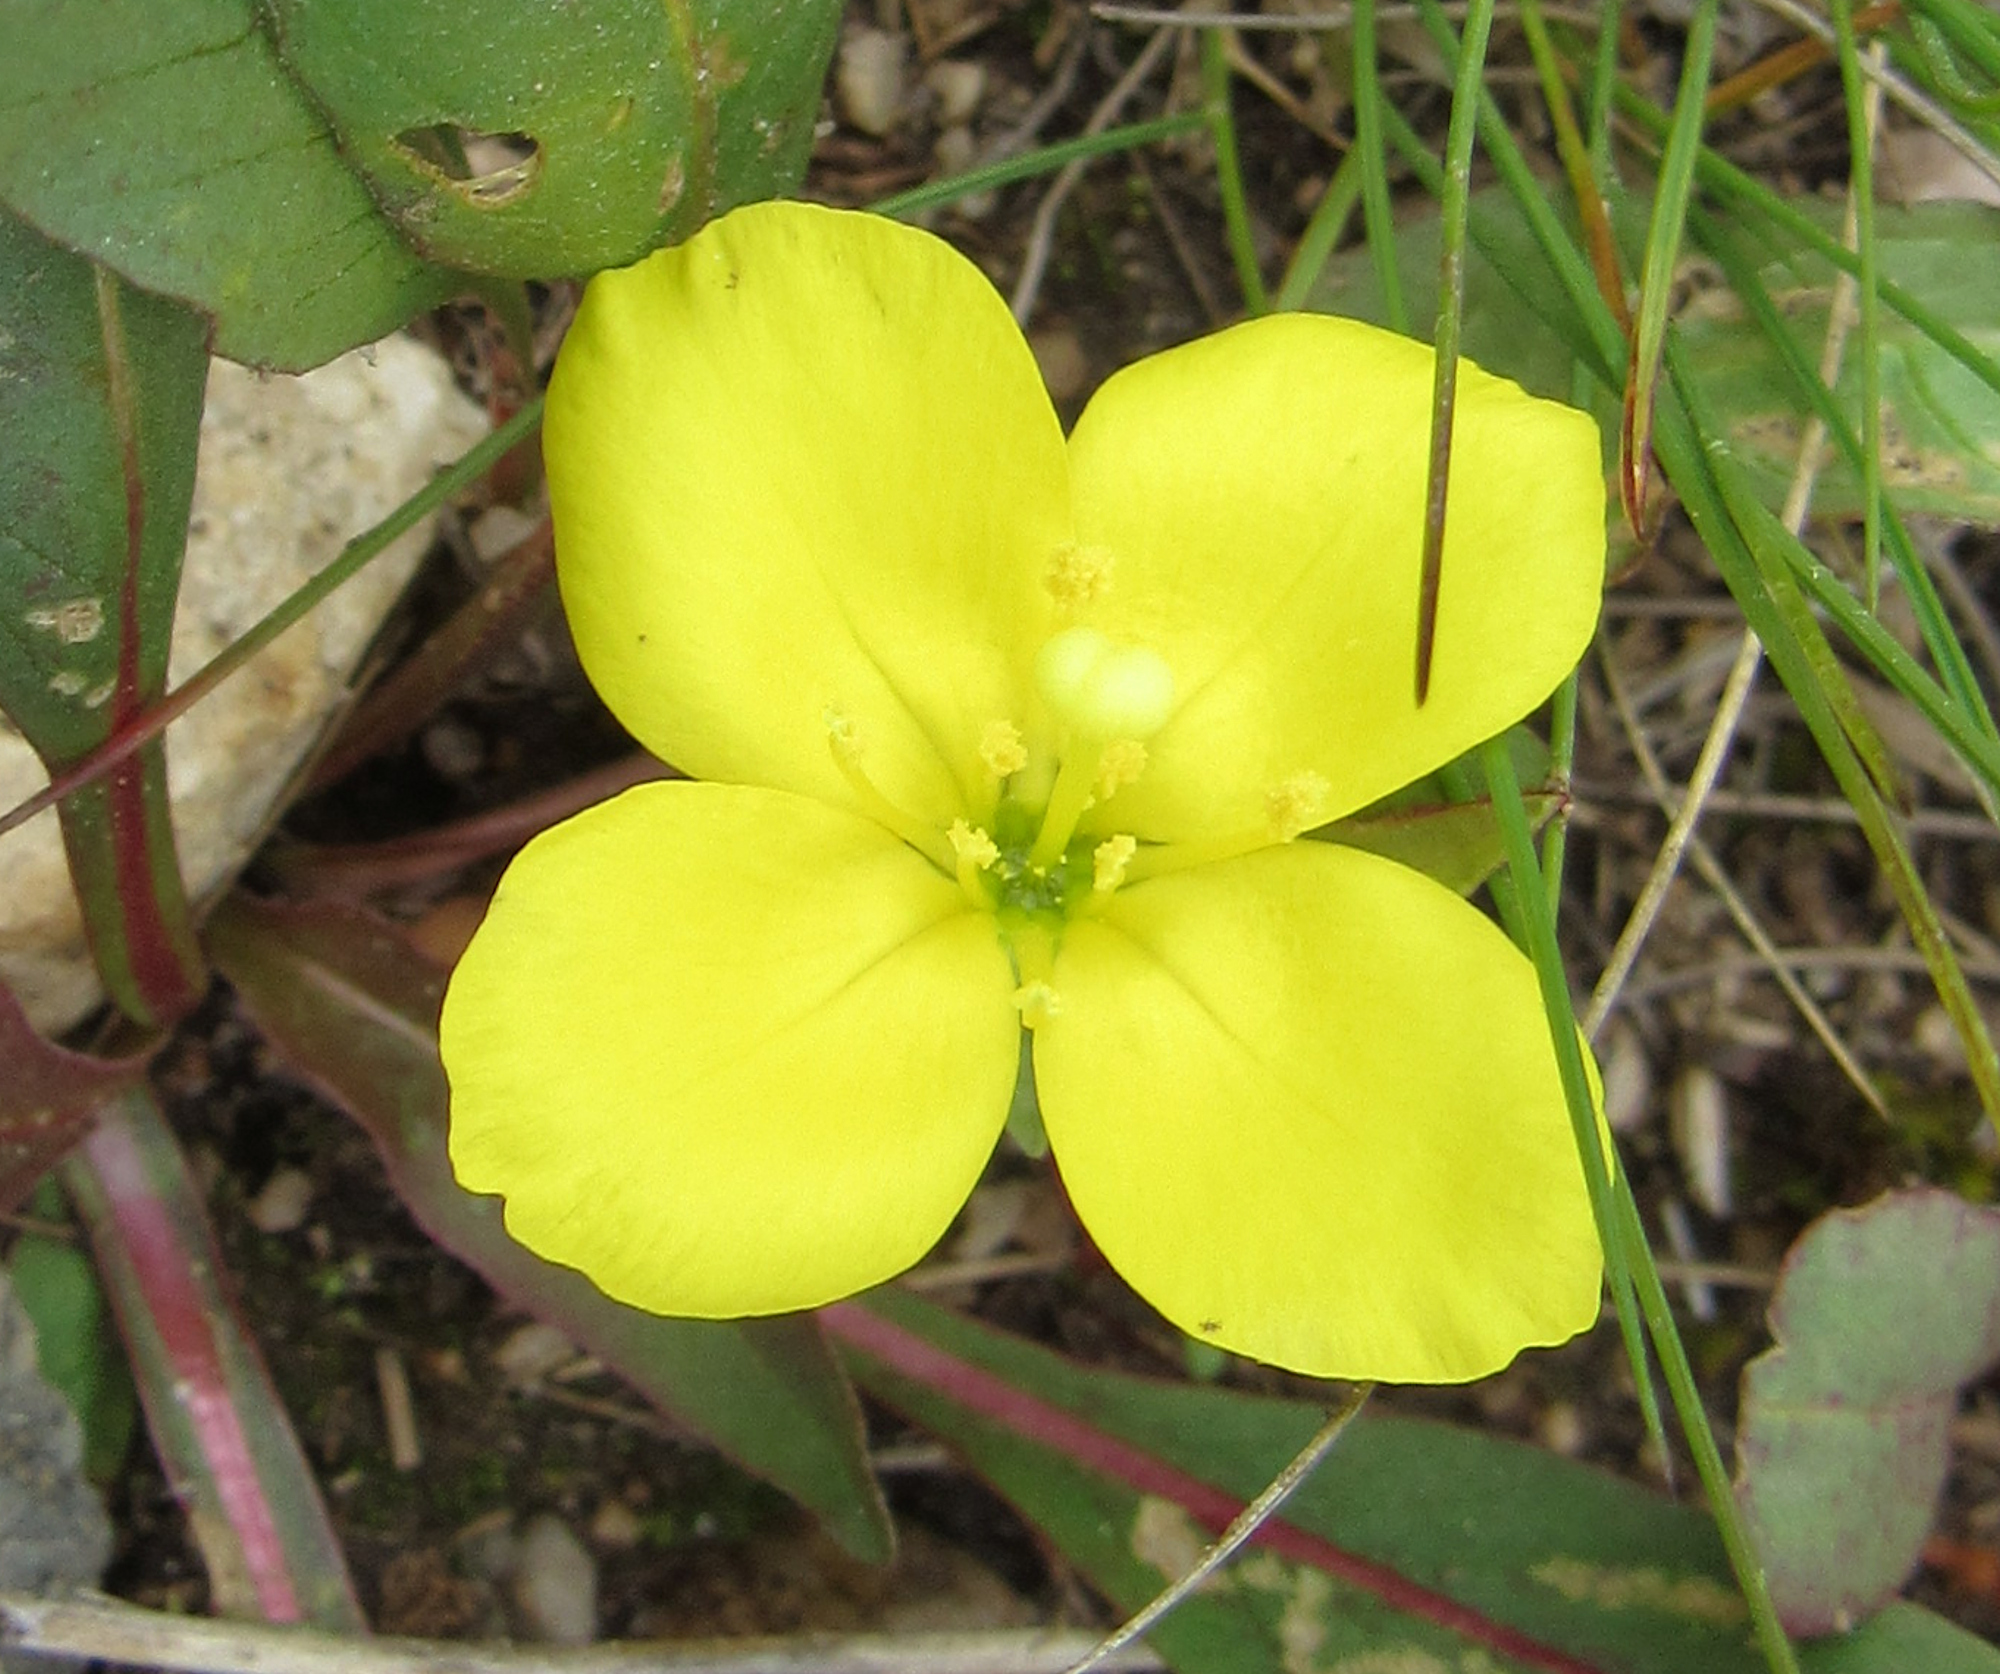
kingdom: Plantae
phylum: Tracheophyta
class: Magnoliopsida
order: Myrtales
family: Onagraceae
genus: Taraxia
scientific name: Taraxia subacaulis
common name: Diffuseflower evening primrose
